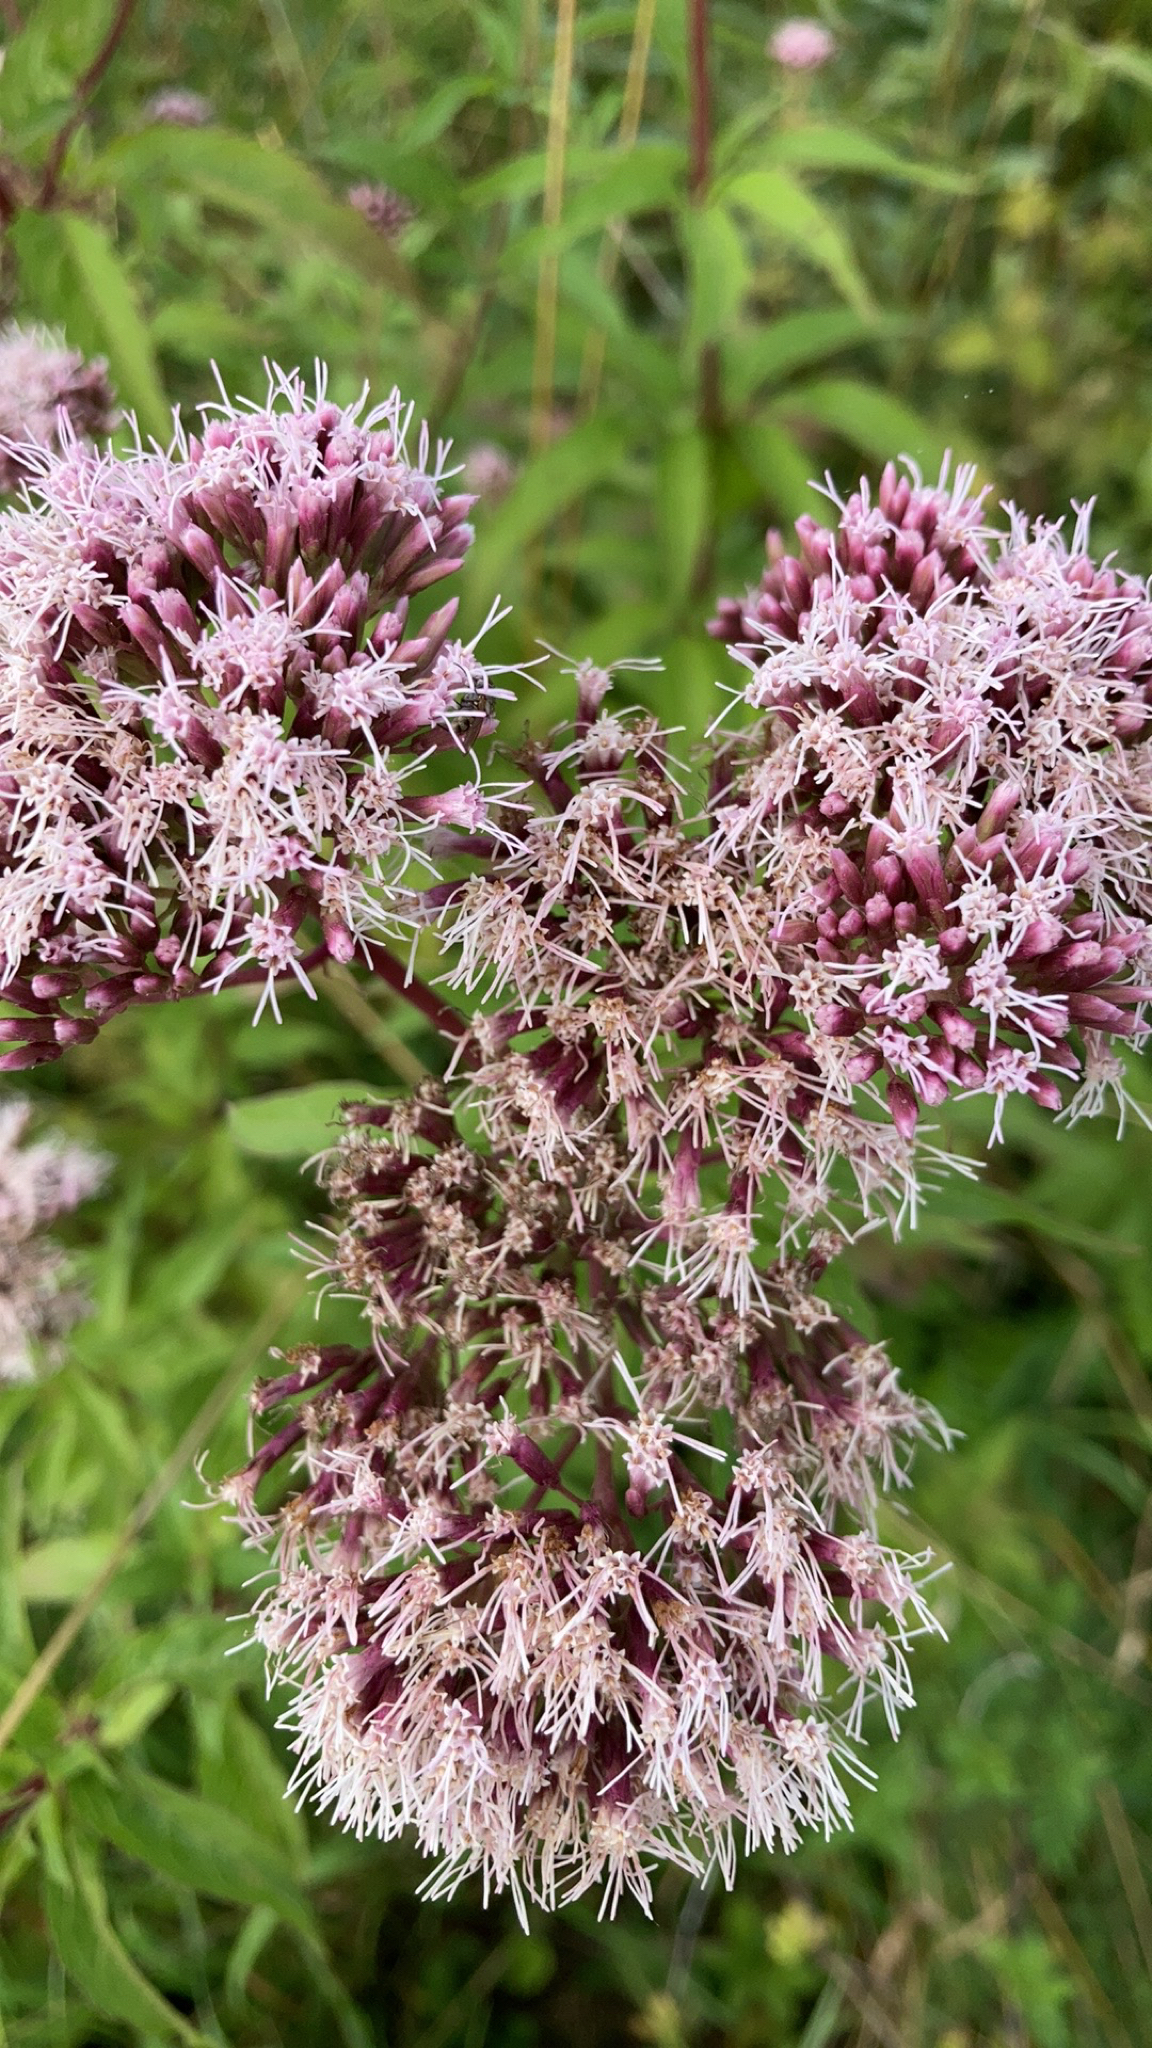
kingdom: Plantae
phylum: Tracheophyta
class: Magnoliopsida
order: Asterales
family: Asteraceae
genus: Eupatorium
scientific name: Eupatorium cannabinum
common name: Hemp-agrimony
